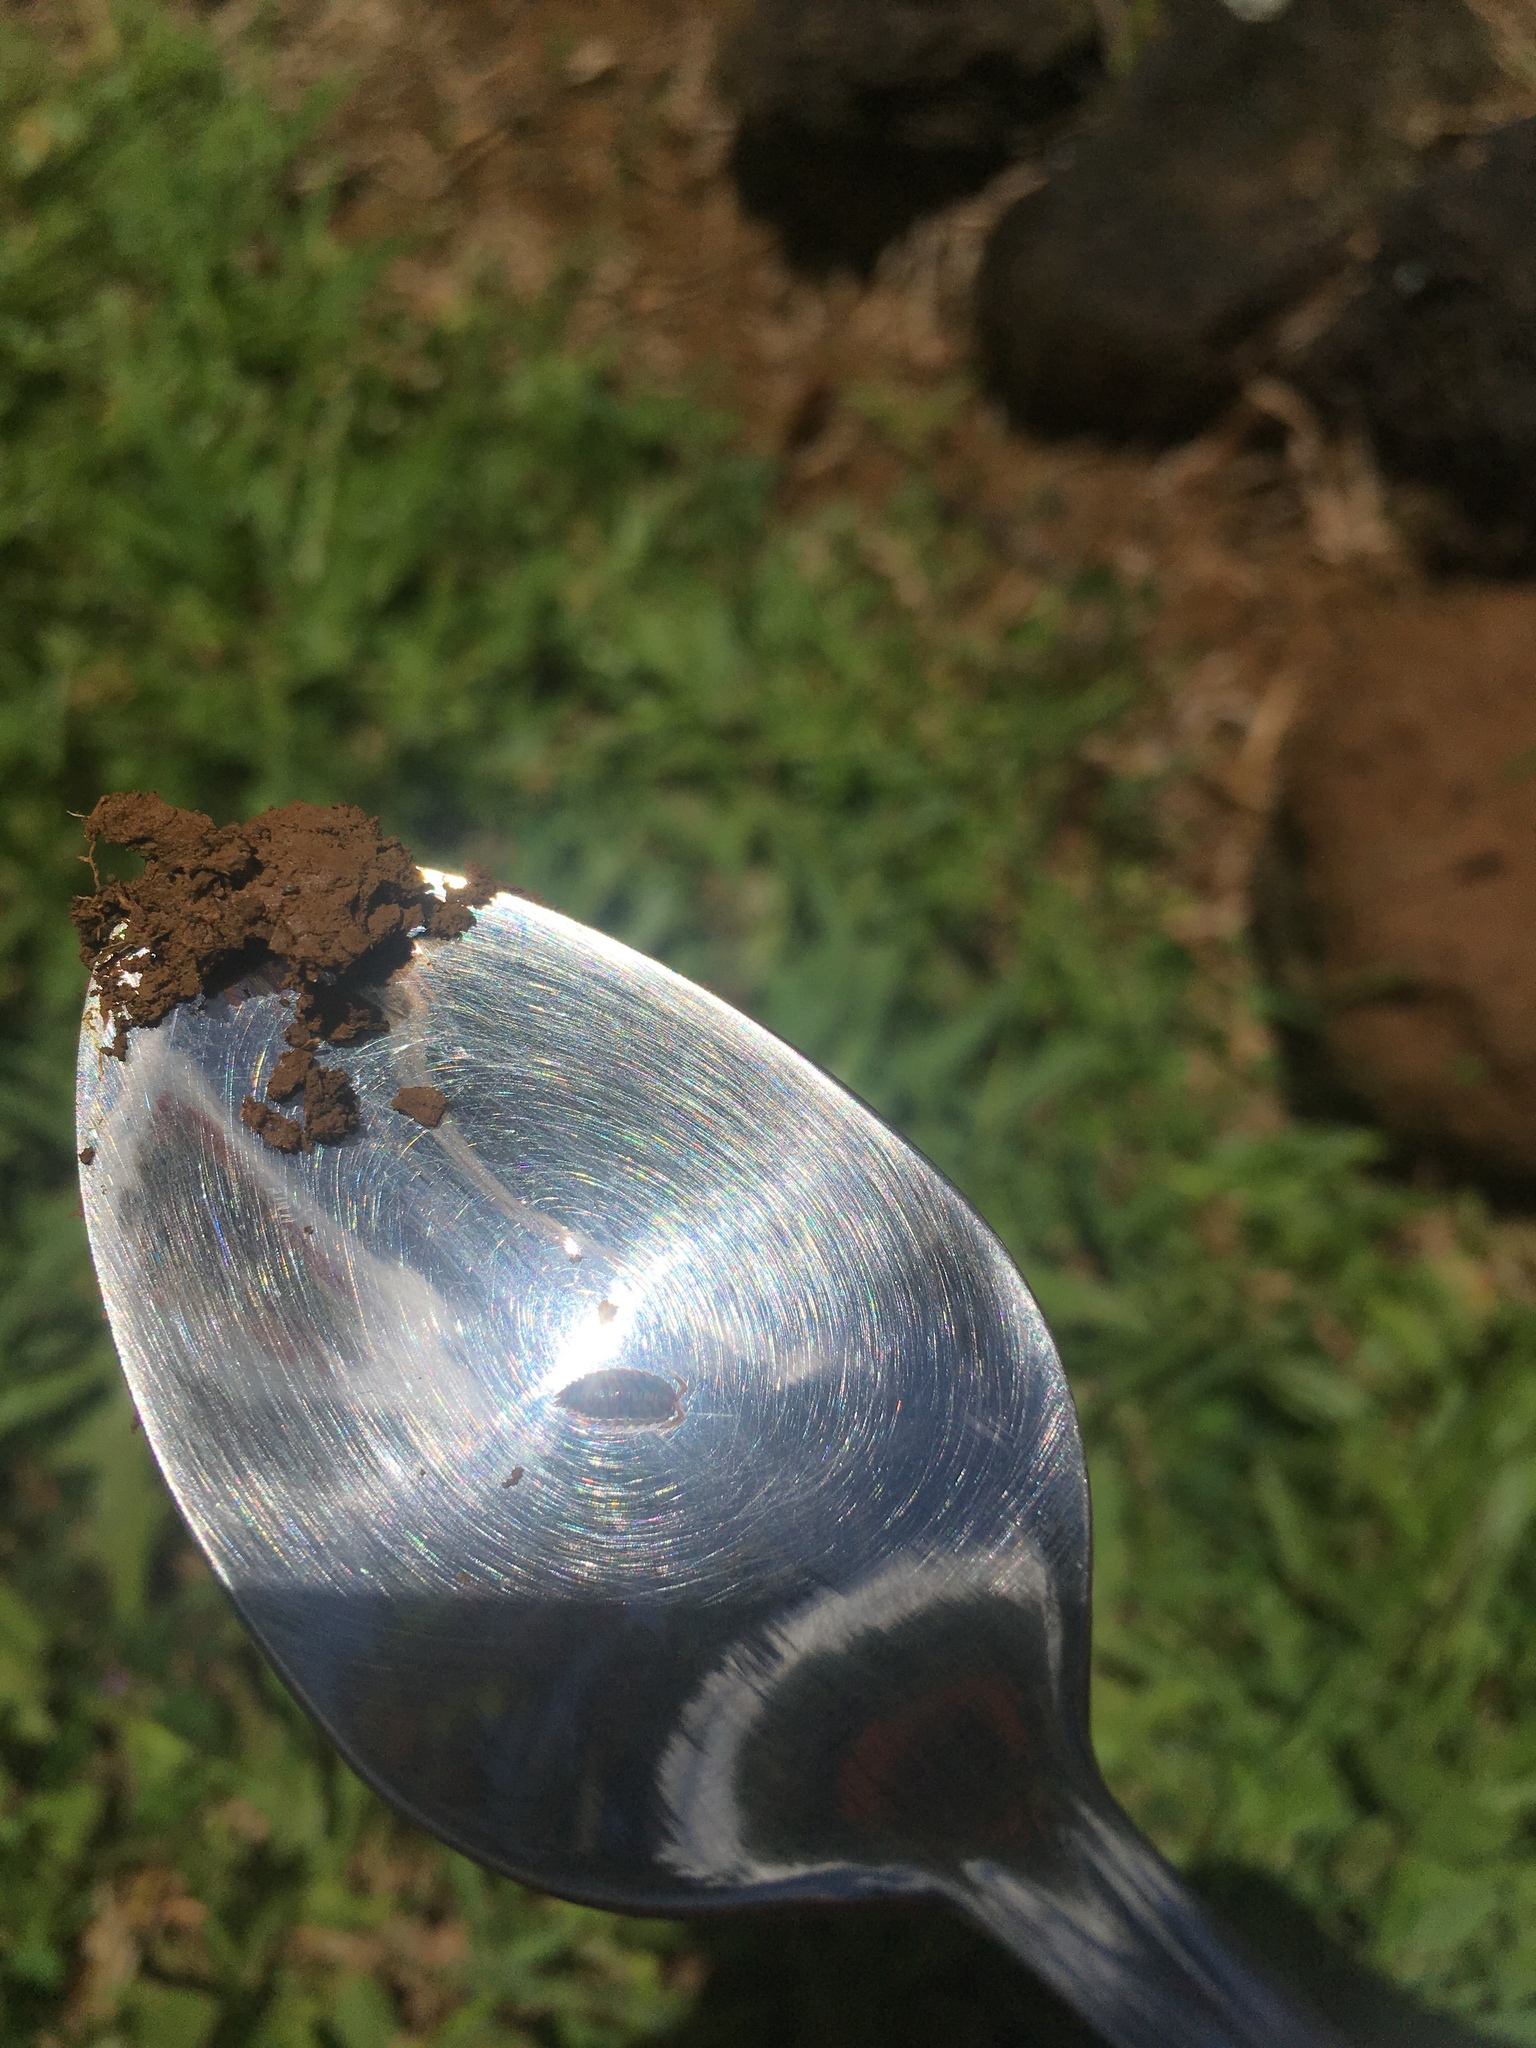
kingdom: Animalia
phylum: Arthropoda
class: Malacostraca
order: Isopoda
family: Trachelipodidae
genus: Nagurus
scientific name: Nagurus cristatus
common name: Pillbug
